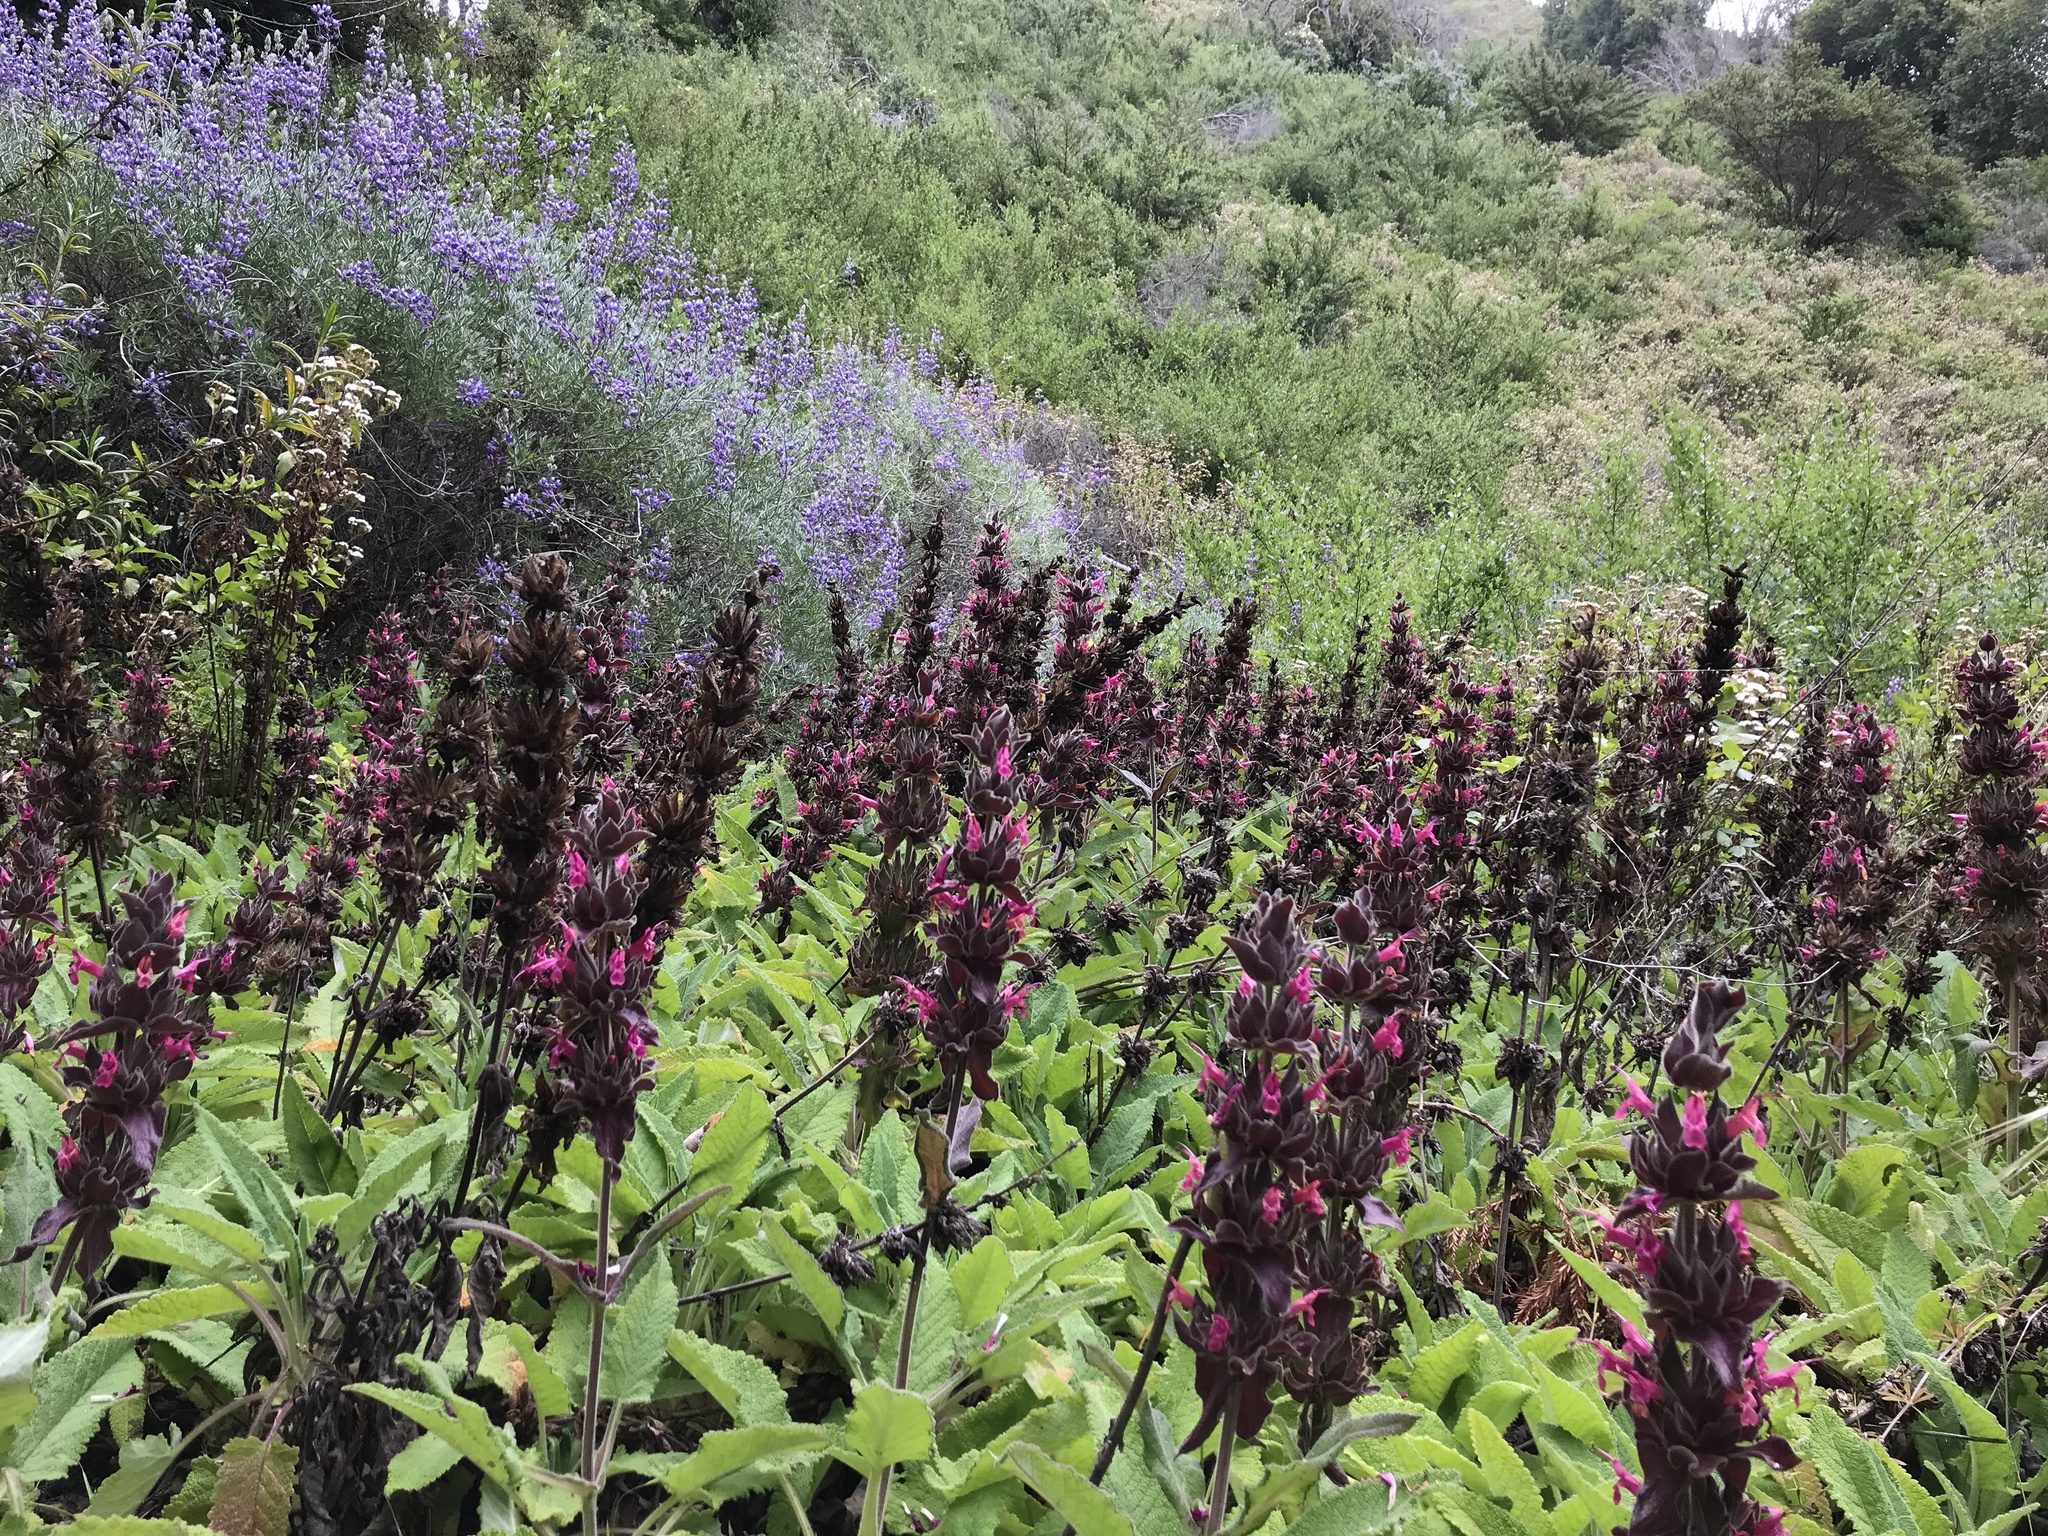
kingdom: Plantae
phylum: Tracheophyta
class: Magnoliopsida
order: Lamiales
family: Lamiaceae
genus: Salvia
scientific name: Salvia spathacea
